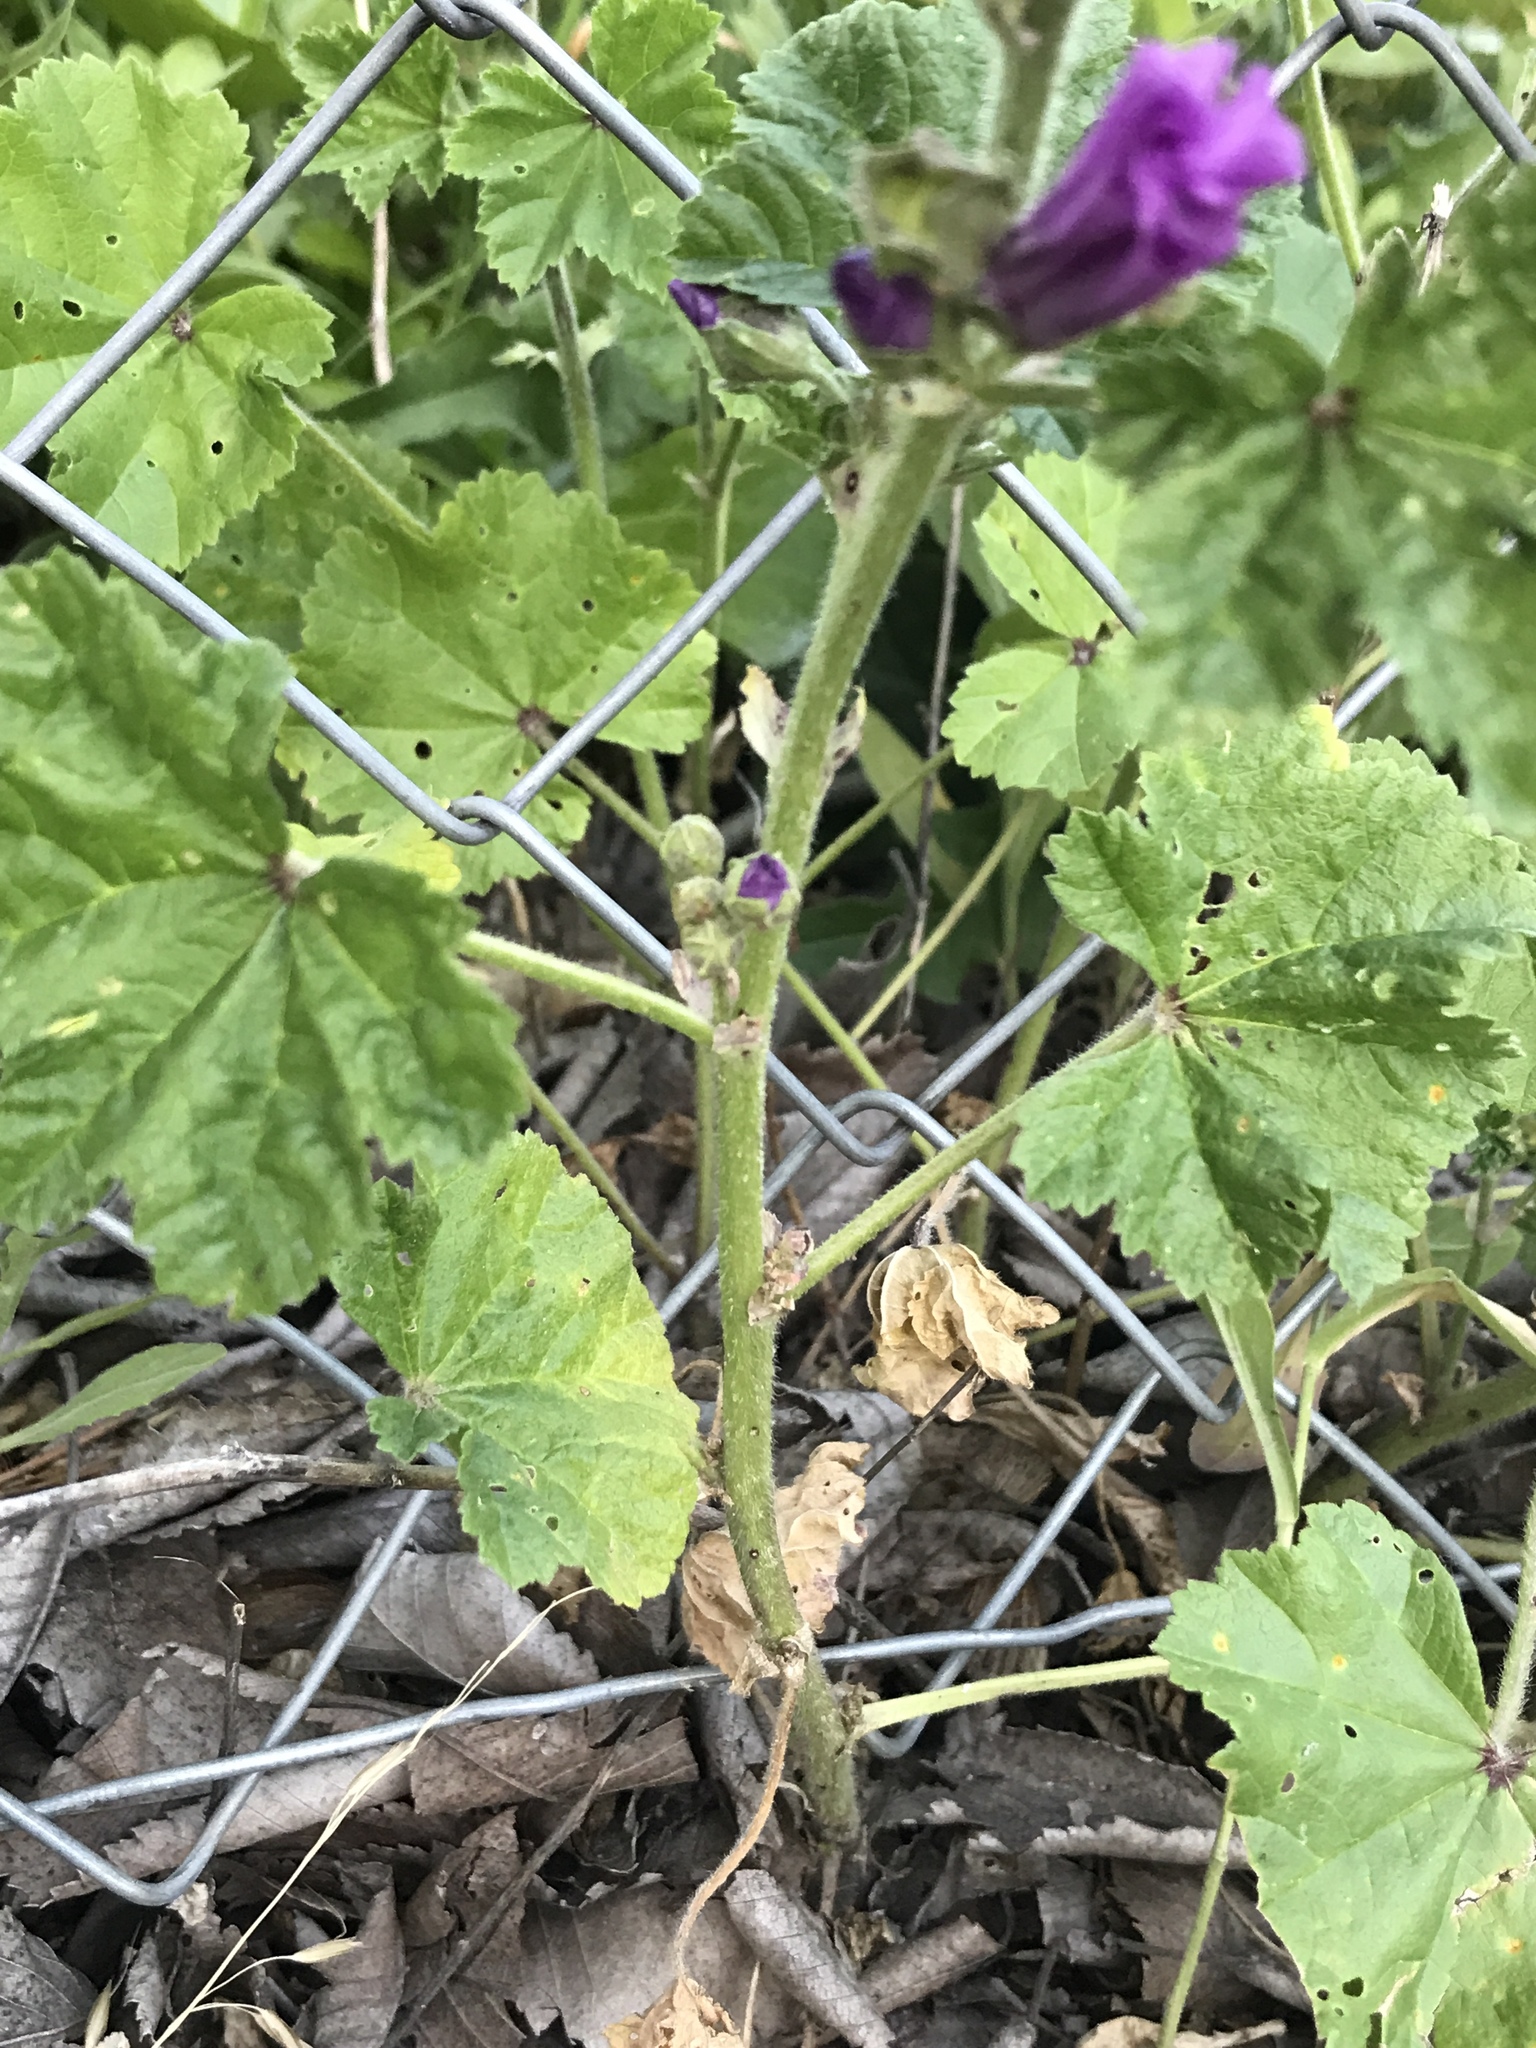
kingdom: Plantae
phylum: Tracheophyta
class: Magnoliopsida
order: Malvales
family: Malvaceae
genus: Malva
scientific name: Malva sylvestris
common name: Common mallow
